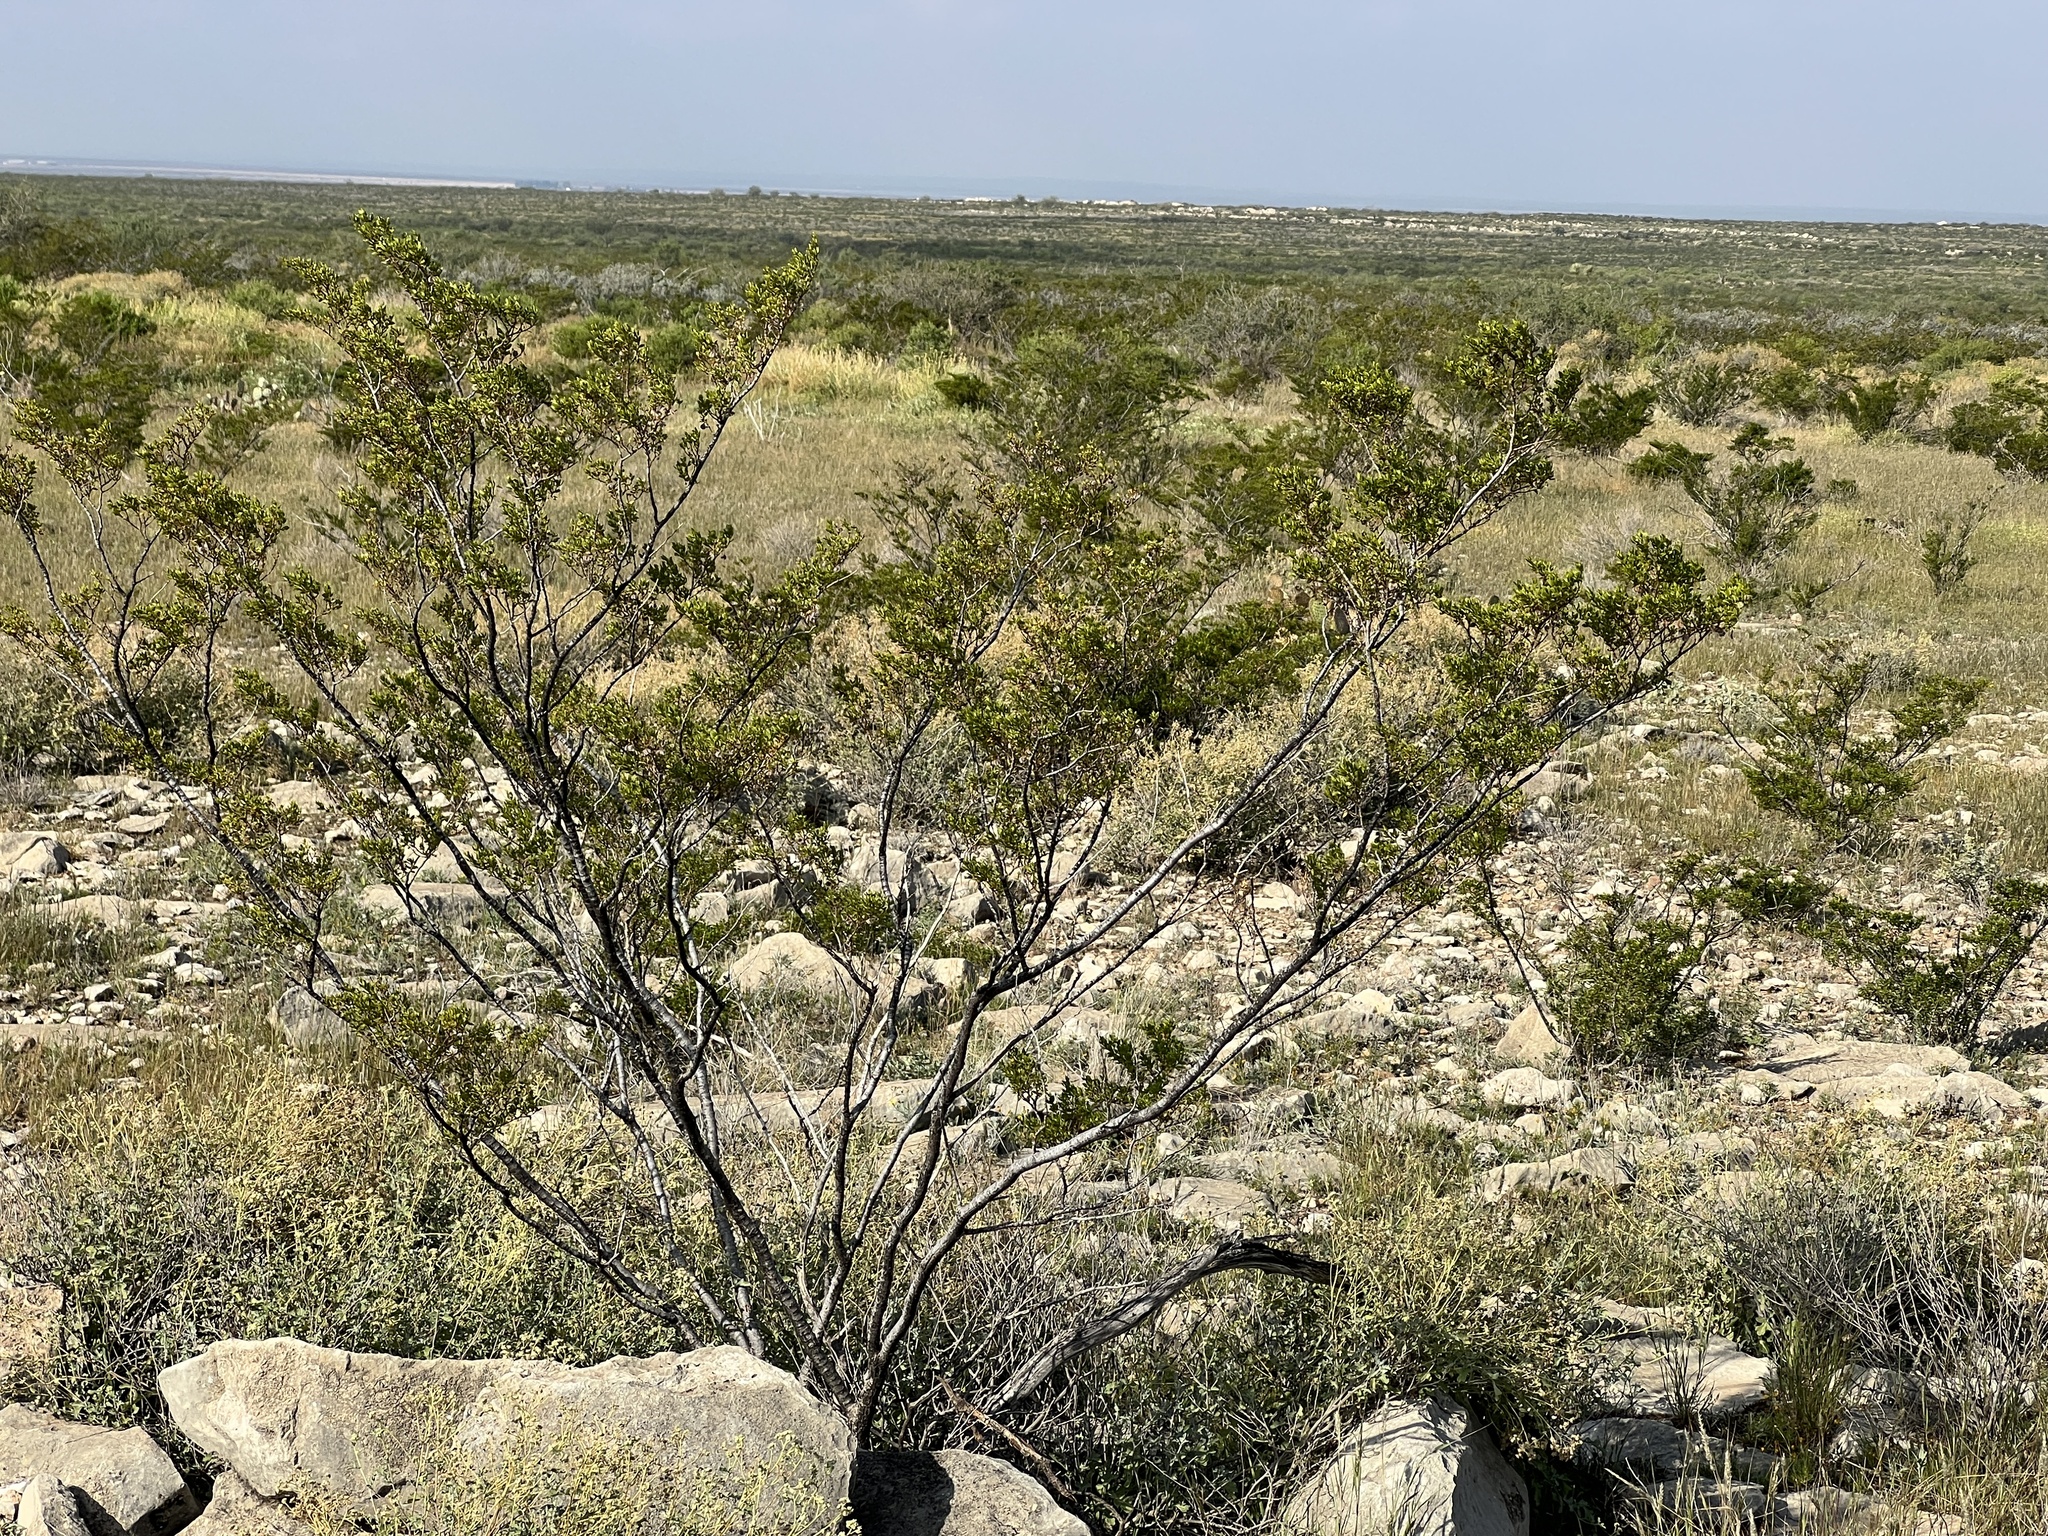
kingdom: Plantae
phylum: Tracheophyta
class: Magnoliopsida
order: Zygophyllales
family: Zygophyllaceae
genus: Larrea
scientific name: Larrea tridentata
